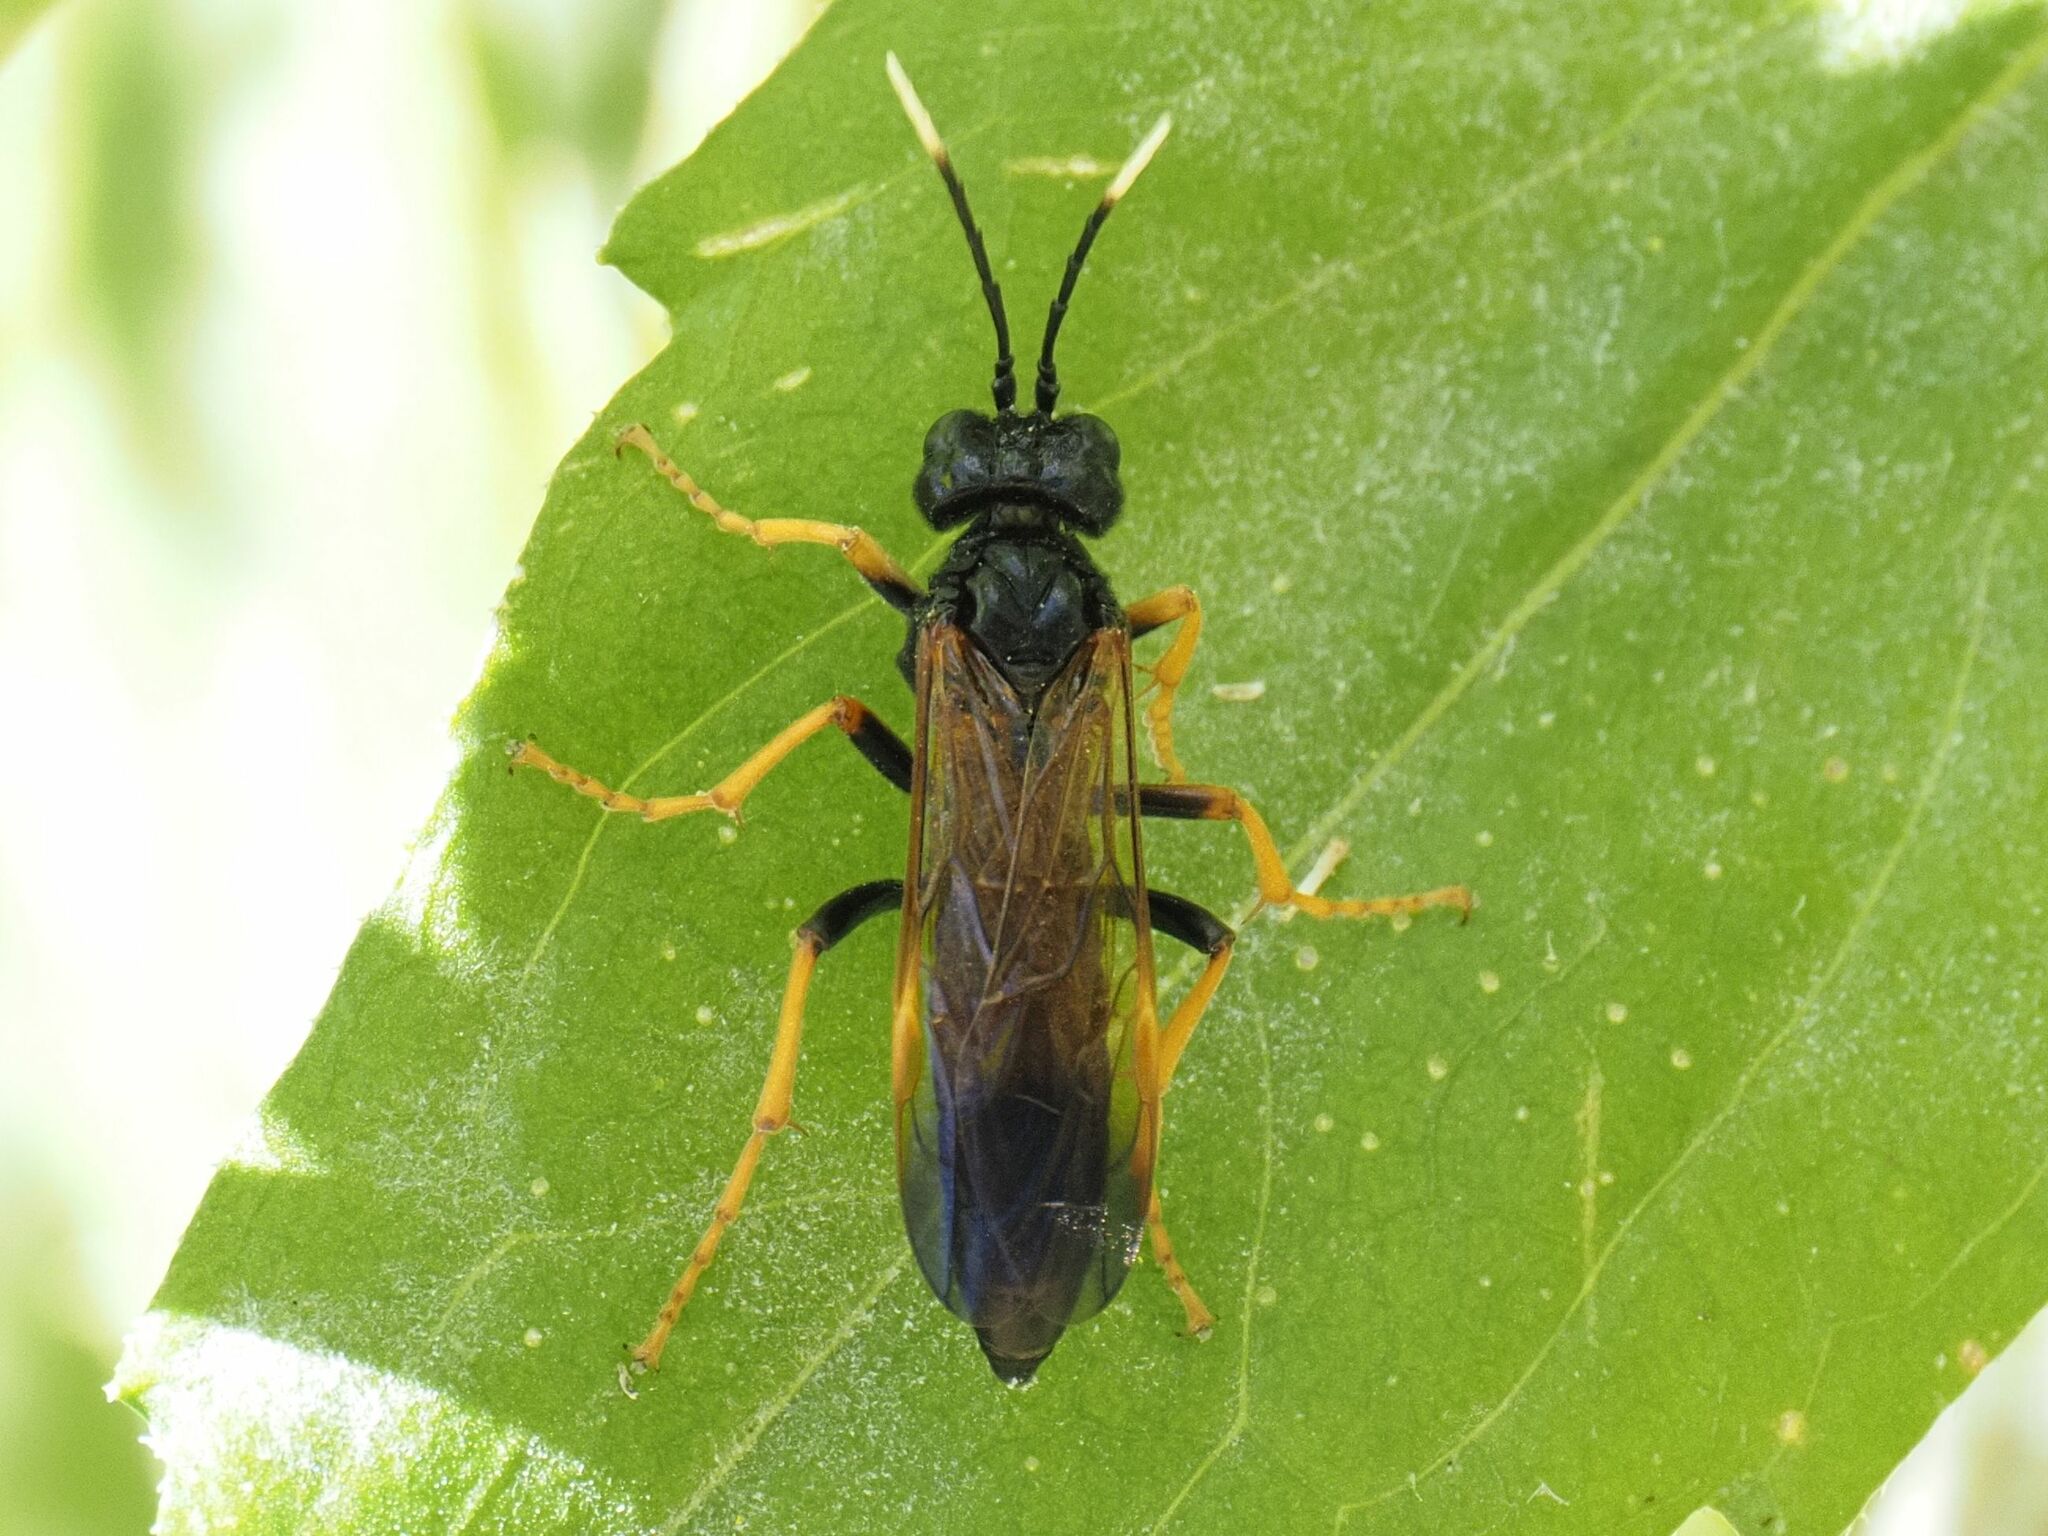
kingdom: Animalia
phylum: Arthropoda
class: Insecta
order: Hymenoptera
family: Tenthredinidae
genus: Tenthredo
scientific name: Tenthredo crassa
